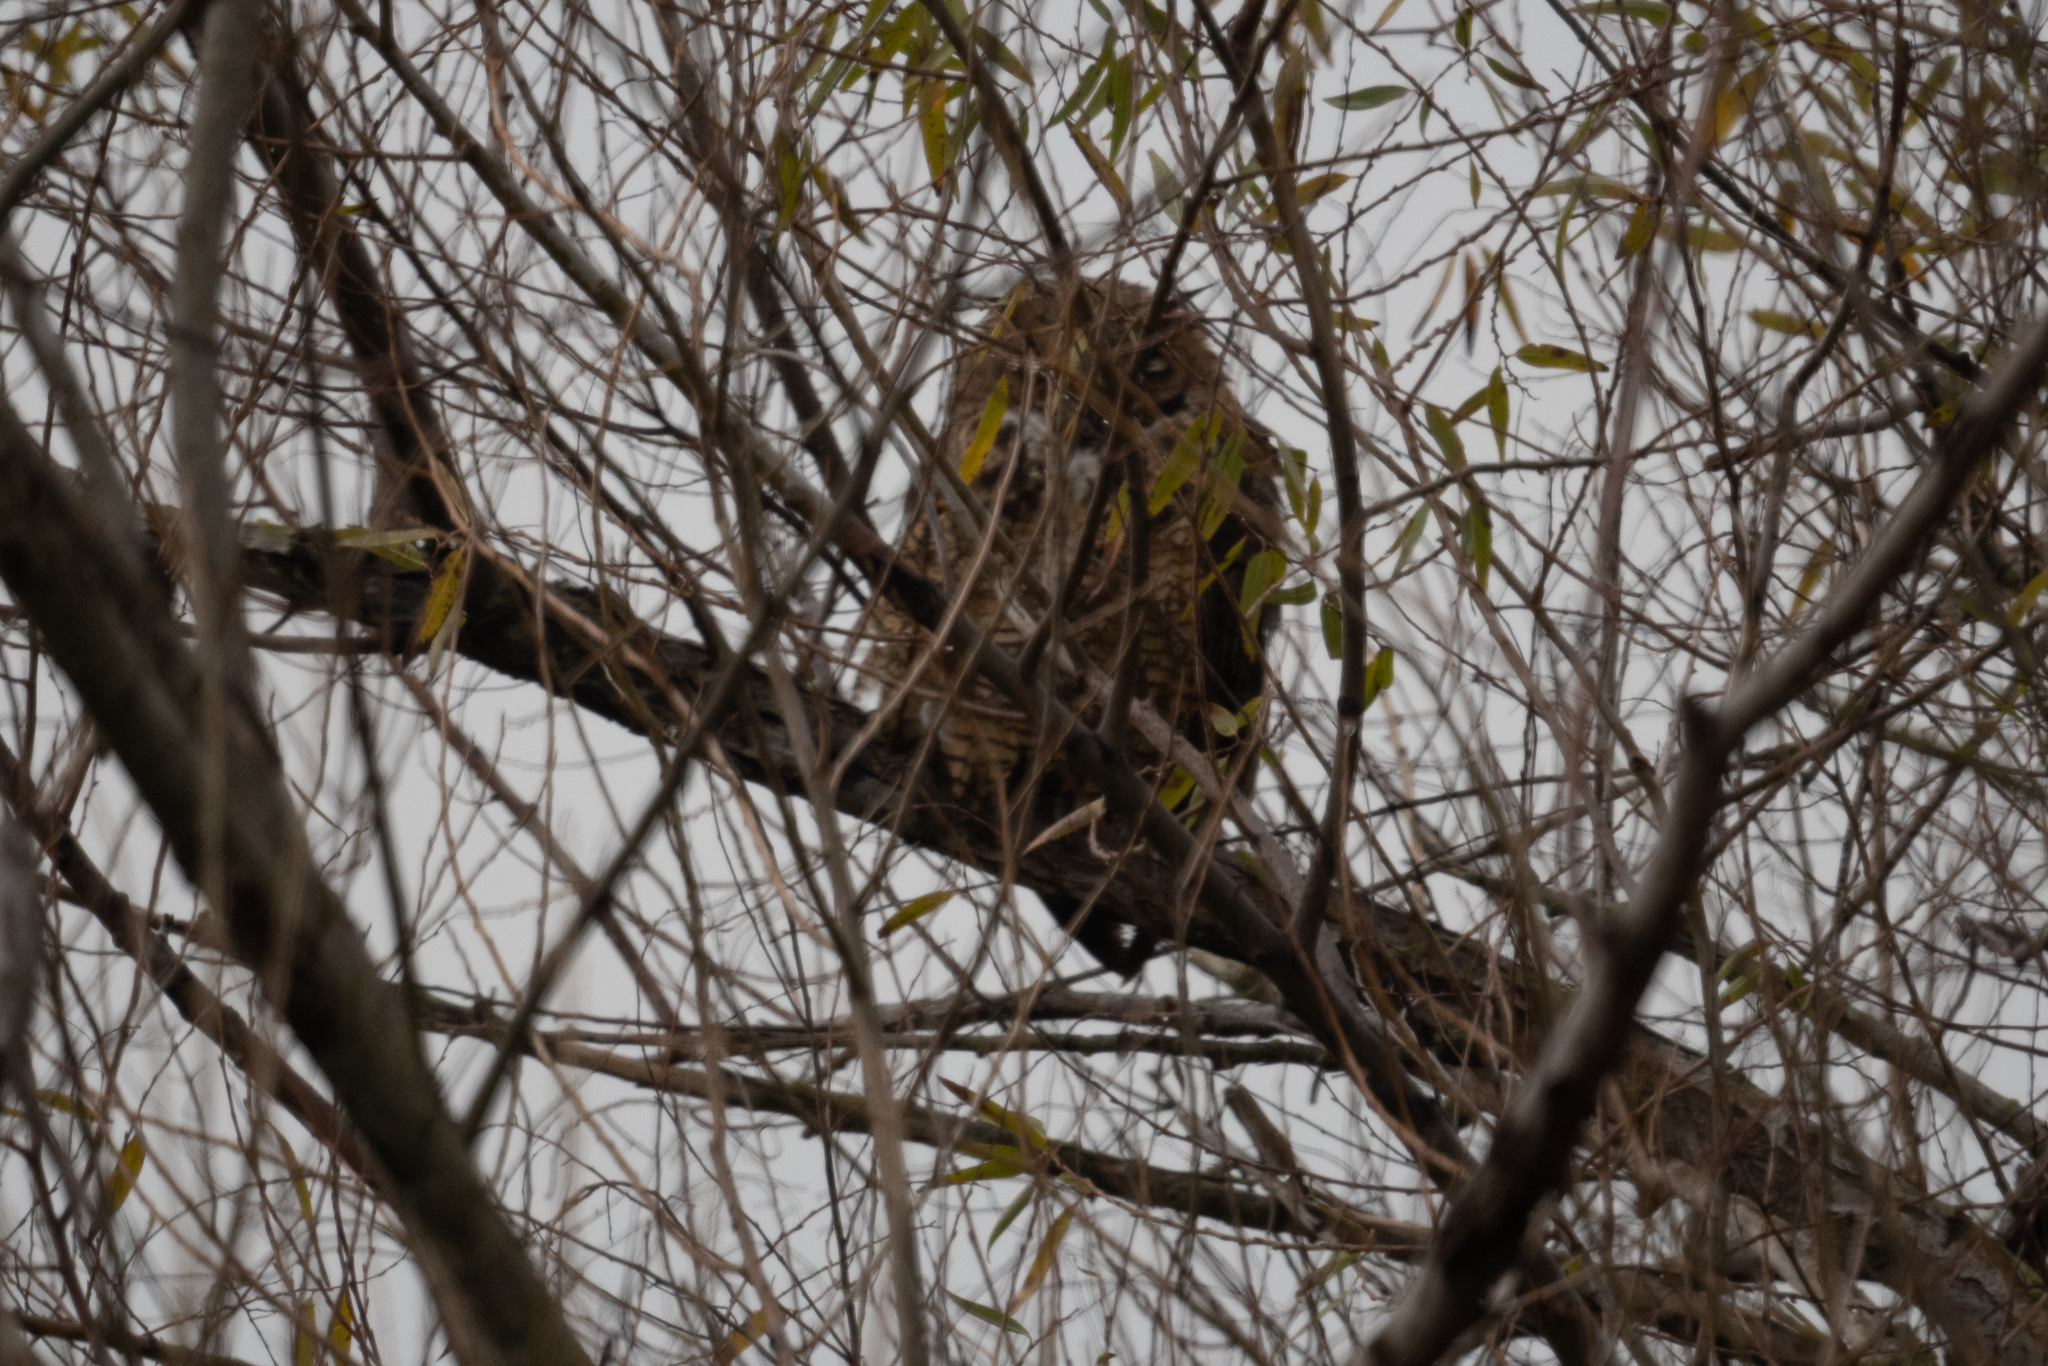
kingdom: Animalia
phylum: Chordata
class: Aves
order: Strigiformes
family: Strigidae
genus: Bubo
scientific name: Bubo virginianus
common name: Great horned owl
